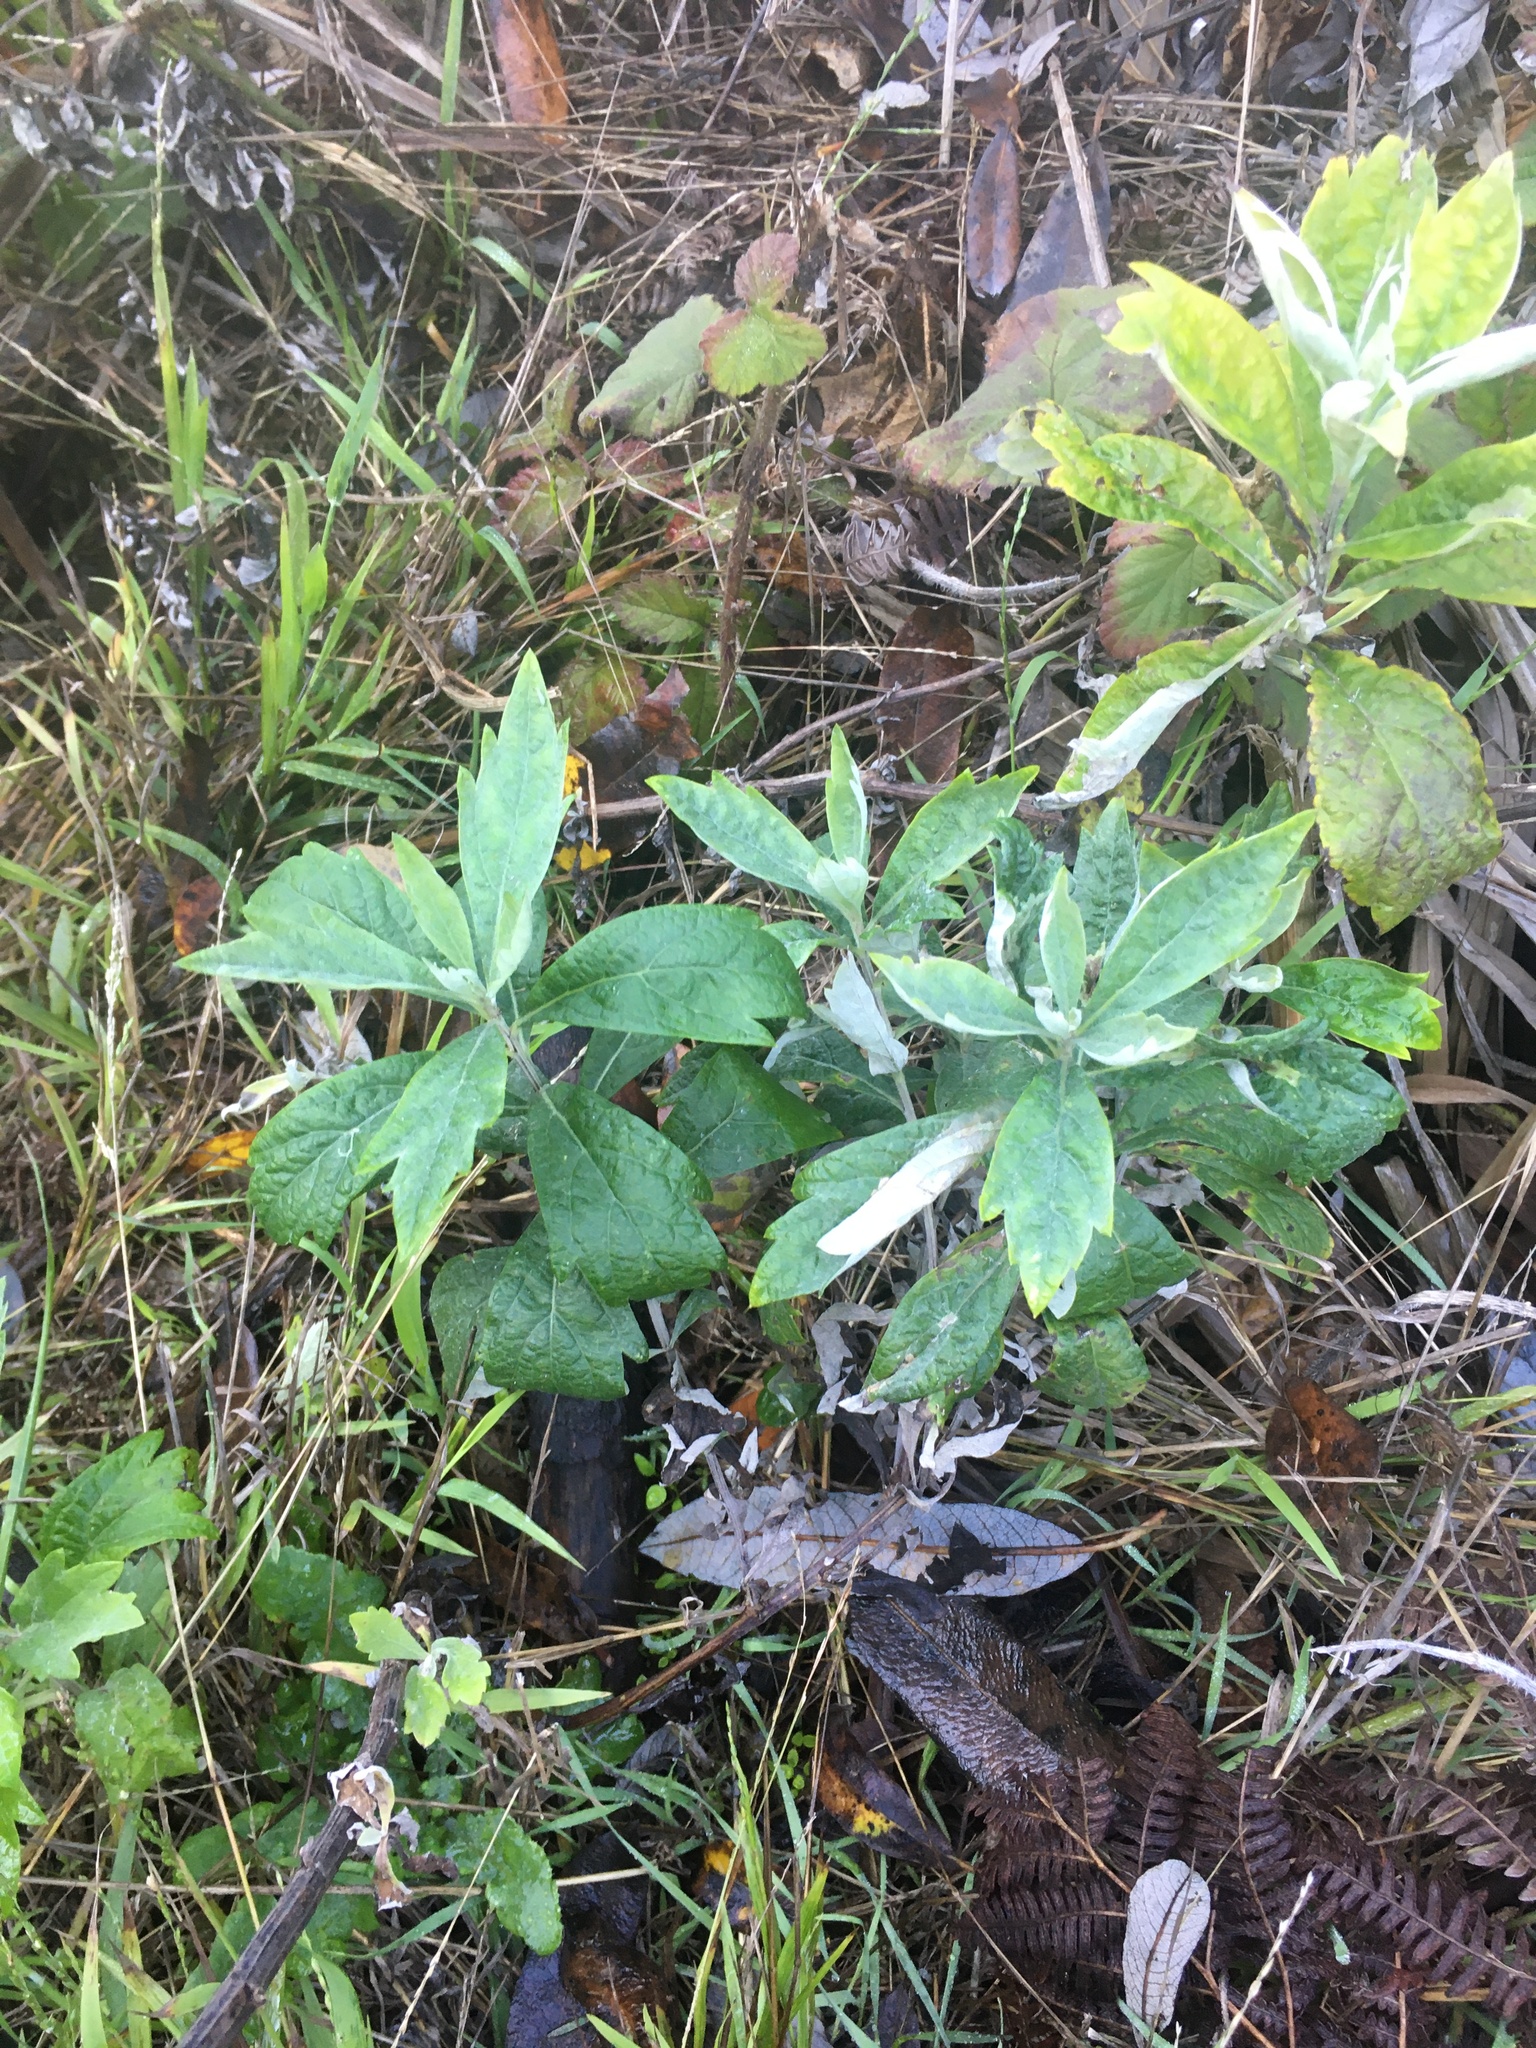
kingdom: Plantae
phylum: Tracheophyta
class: Magnoliopsida
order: Asterales
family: Asteraceae
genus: Artemisia
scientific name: Artemisia douglasiana
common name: Northwest mugwort
